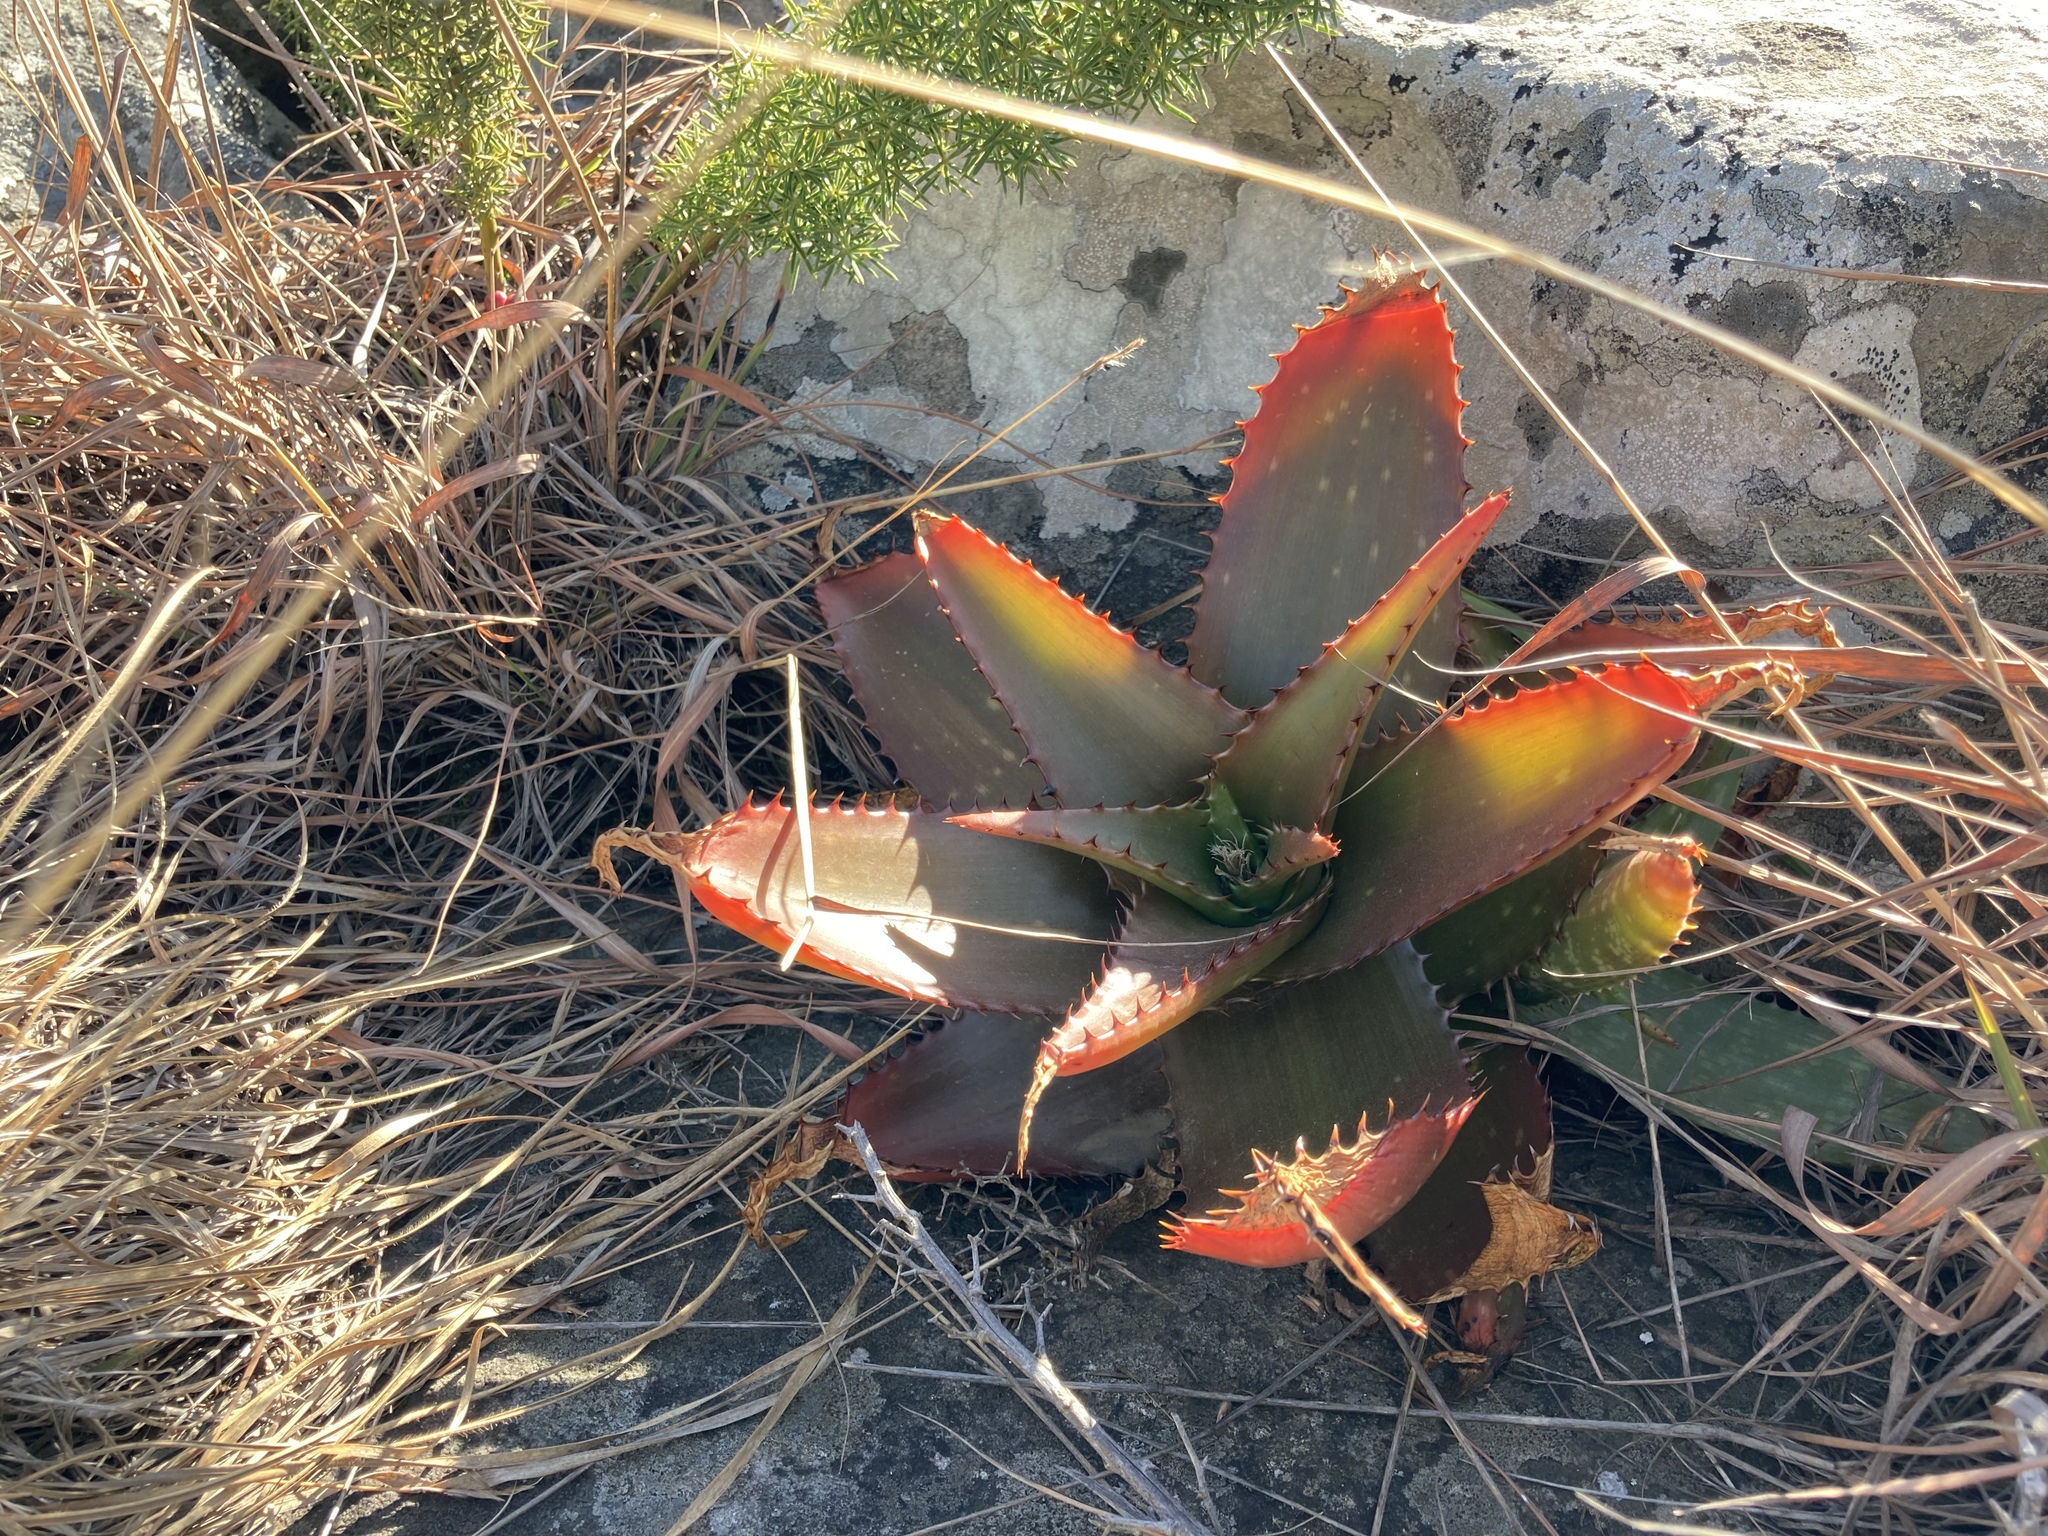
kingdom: Plantae
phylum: Tracheophyta
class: Liliopsida
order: Asparagales
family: Asphodelaceae
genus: Aloe
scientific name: Aloe affinis
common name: Spotted aloe
